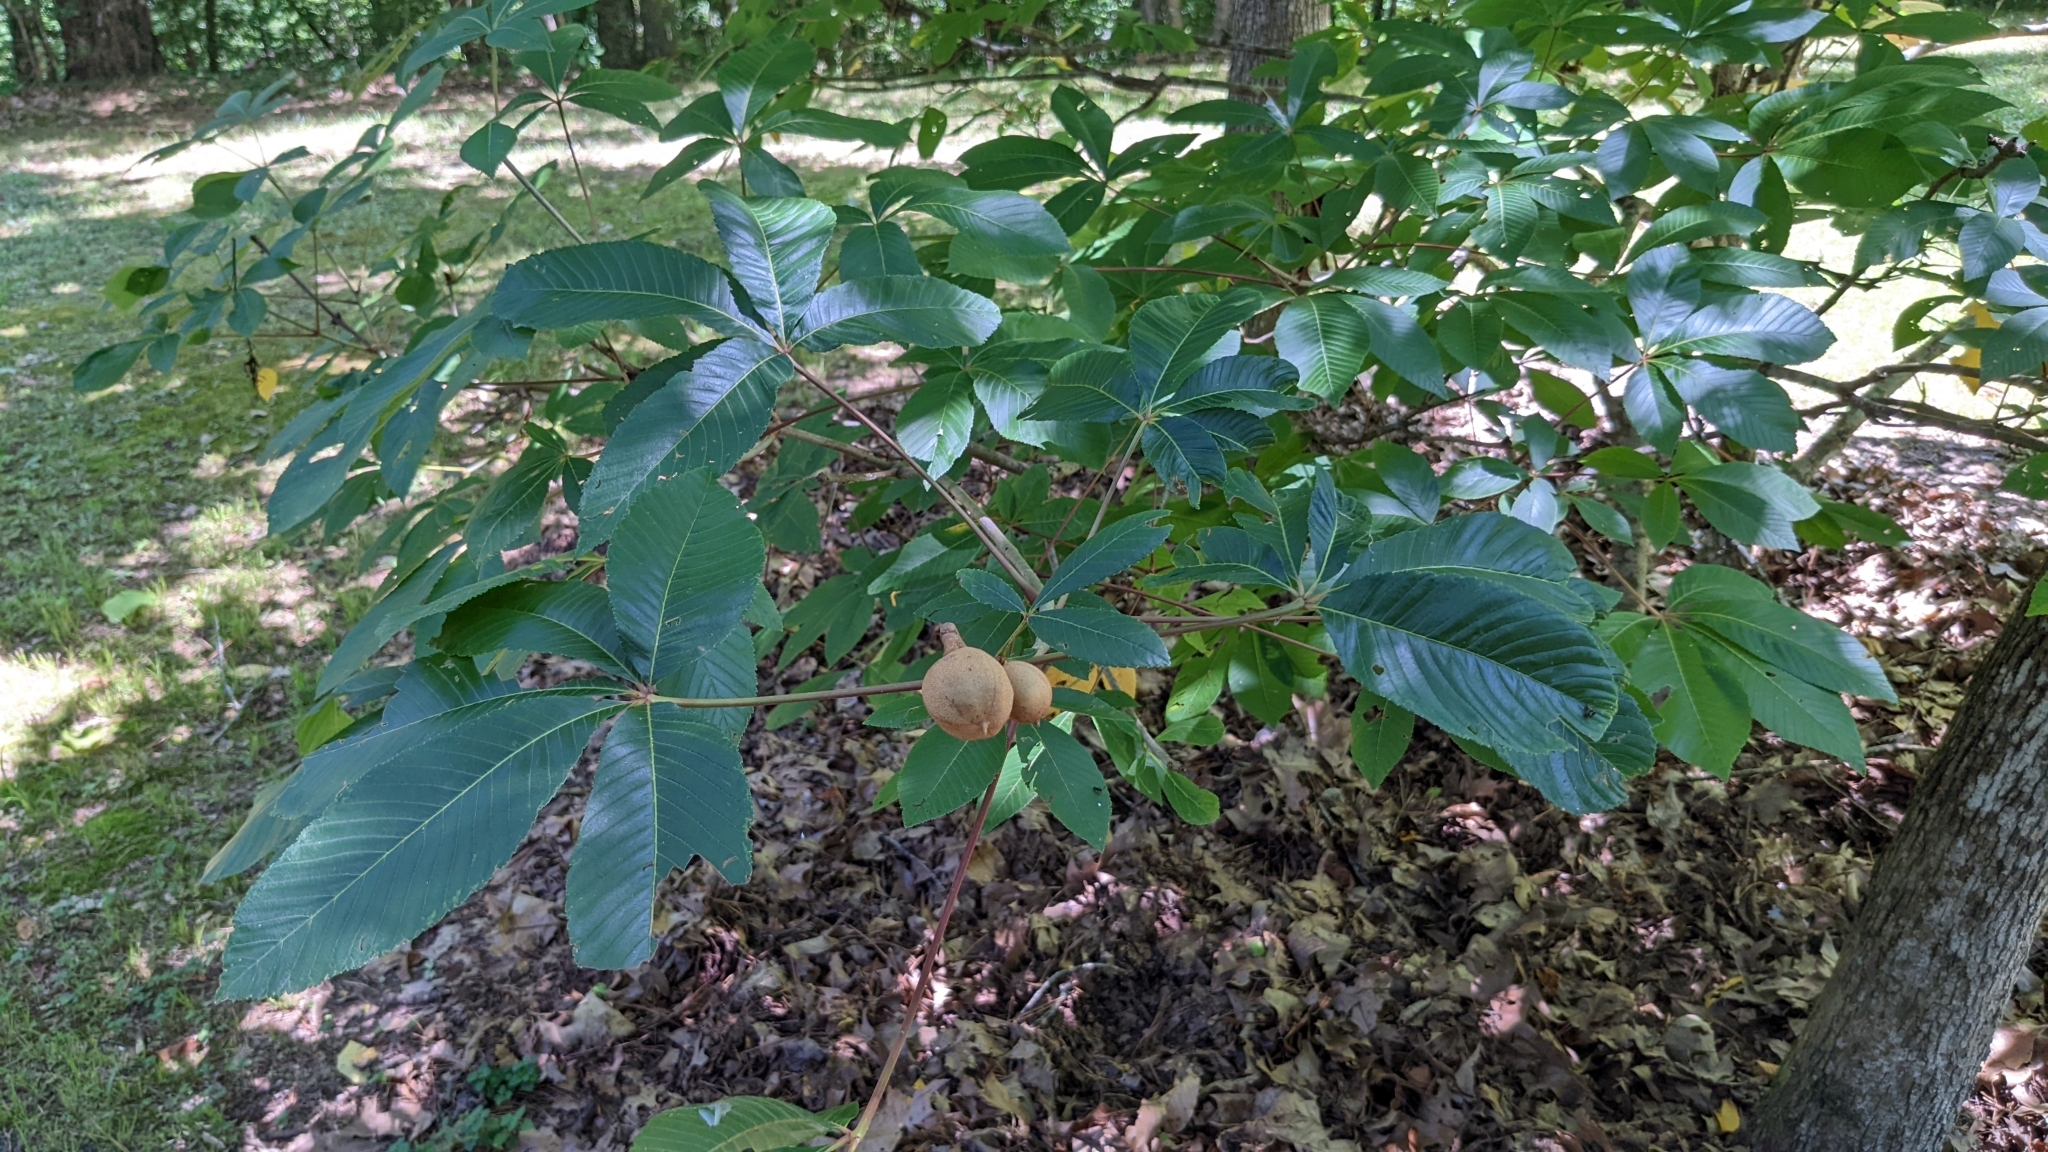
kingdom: Plantae
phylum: Tracheophyta
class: Magnoliopsida
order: Sapindales
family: Sapindaceae
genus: Aesculus
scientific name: Aesculus pavia
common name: Red buckeye
